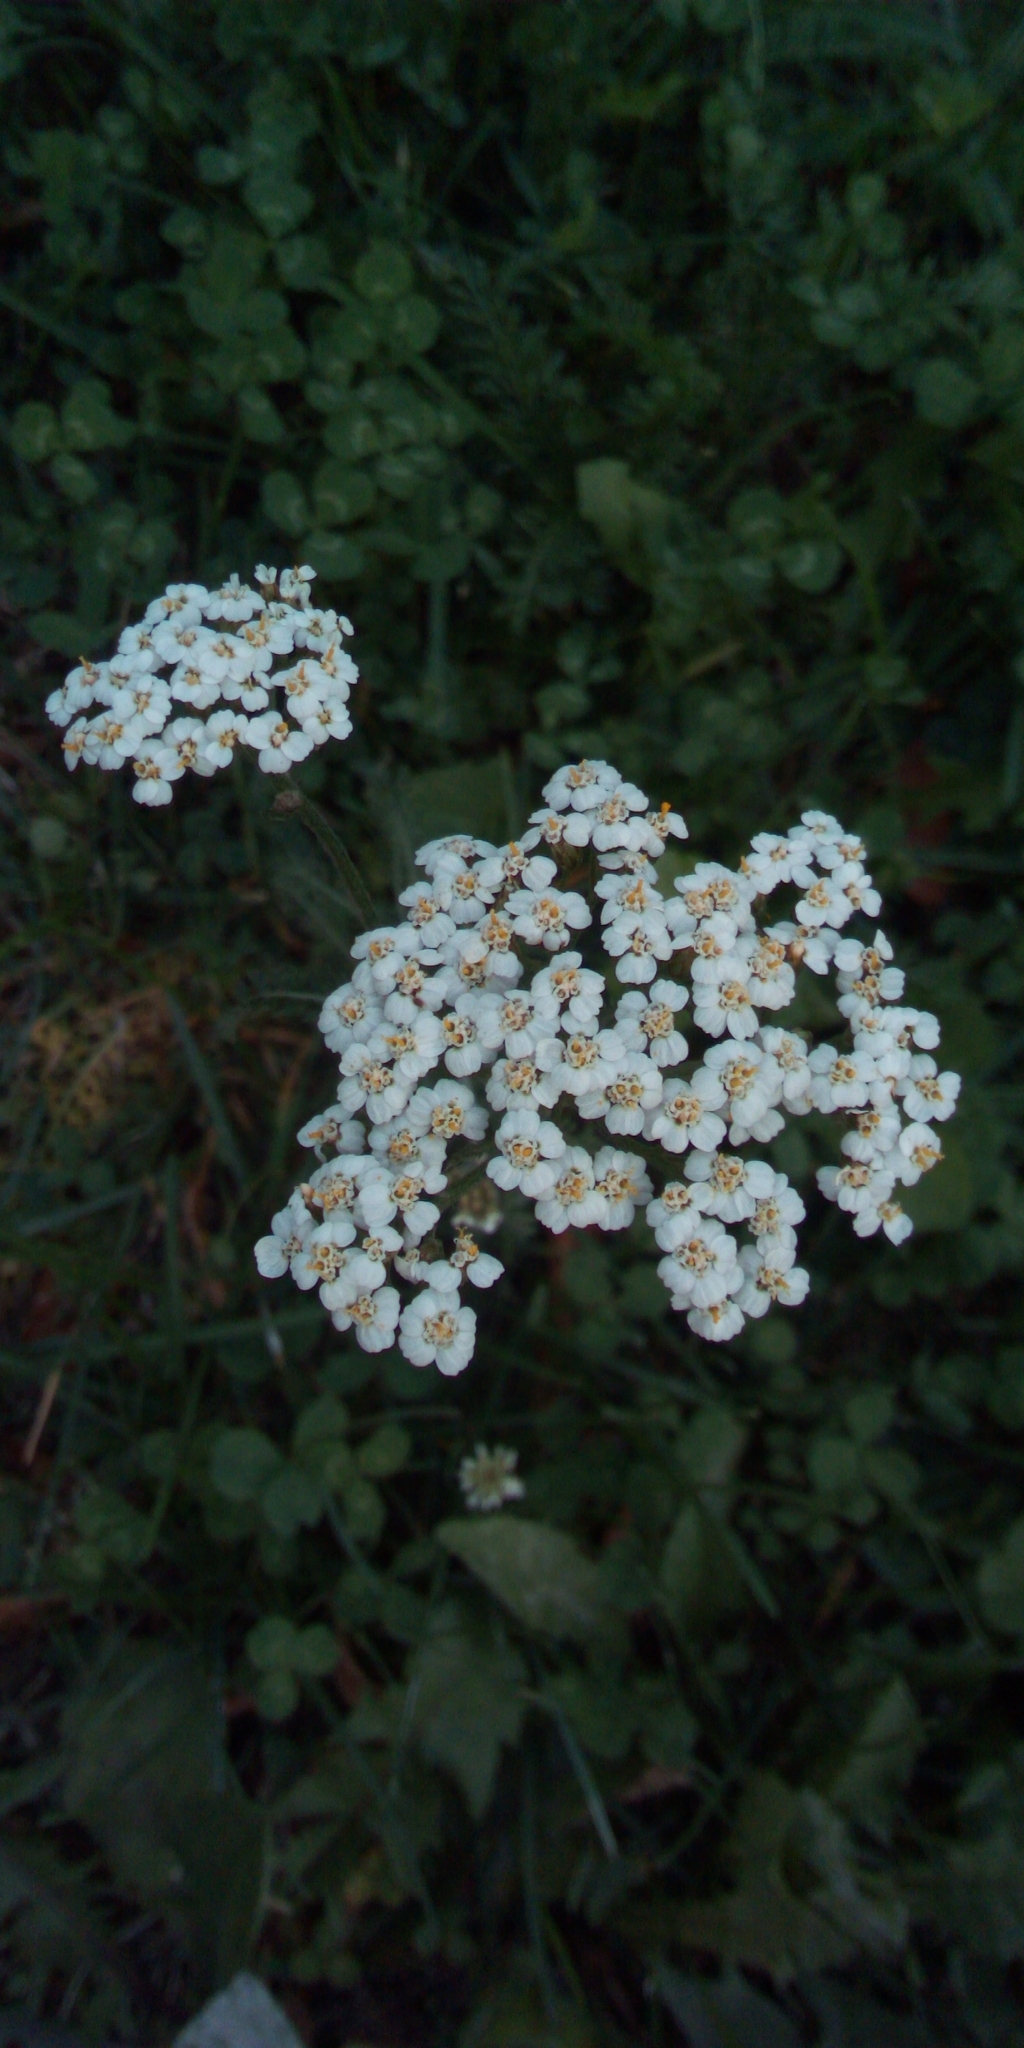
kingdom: Plantae
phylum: Tracheophyta
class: Magnoliopsida
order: Asterales
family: Asteraceae
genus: Achillea
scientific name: Achillea millefolium
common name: Yarrow
